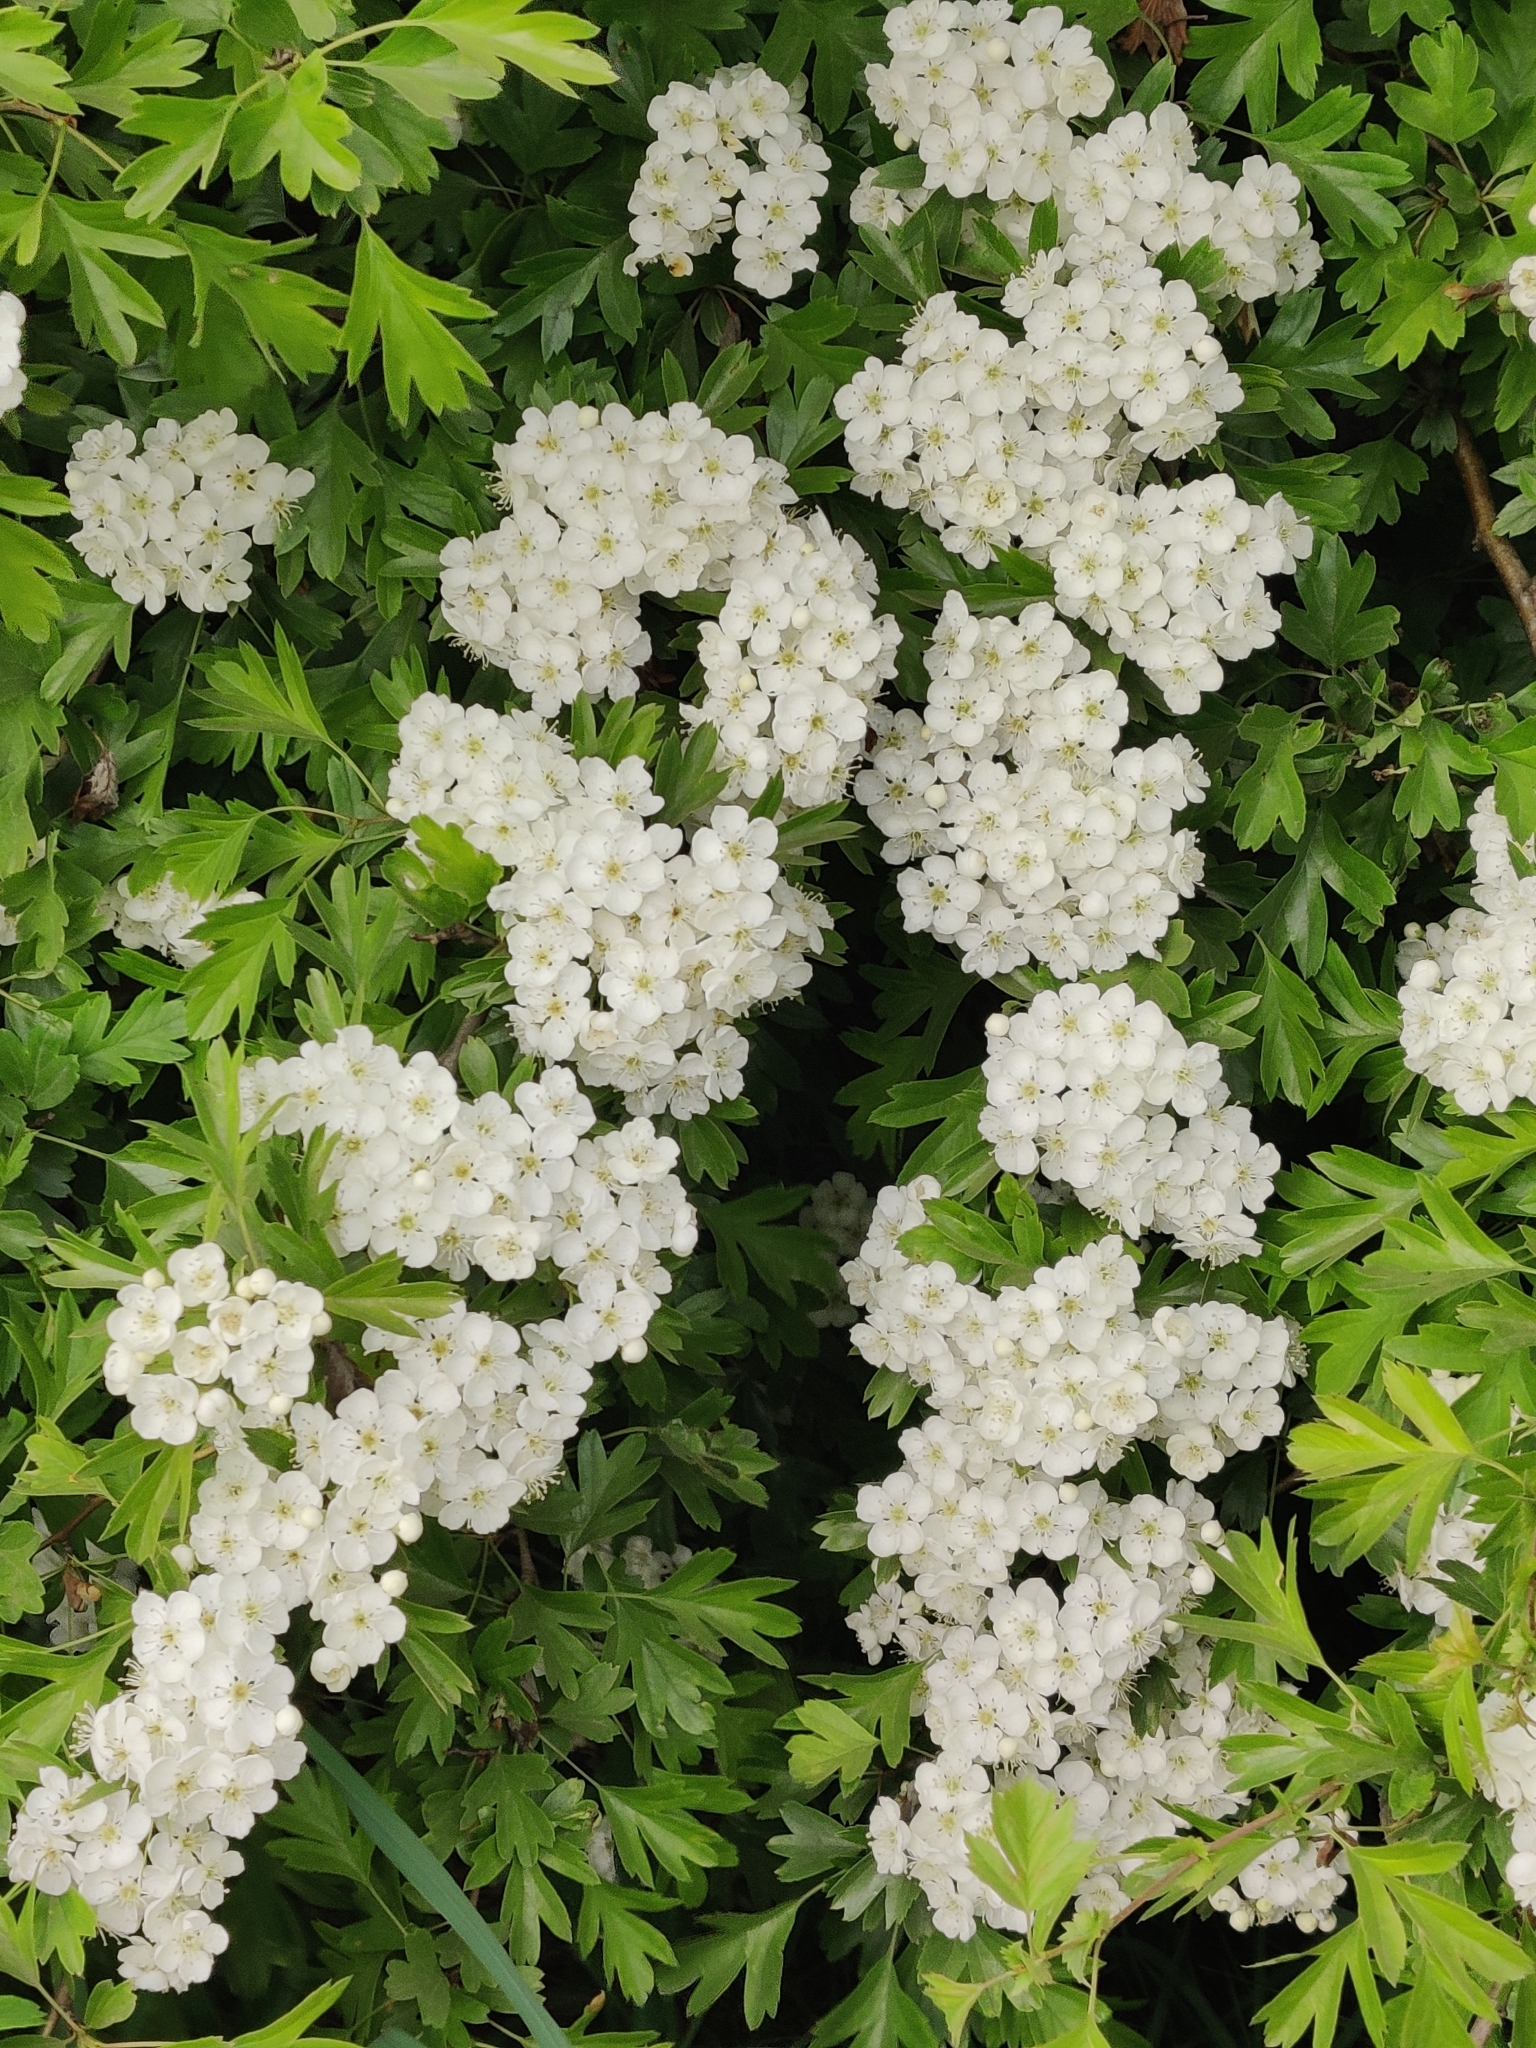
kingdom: Plantae
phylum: Tracheophyta
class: Magnoliopsida
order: Rosales
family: Rosaceae
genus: Crataegus
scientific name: Crataegus monogyna
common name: Hawthorn
